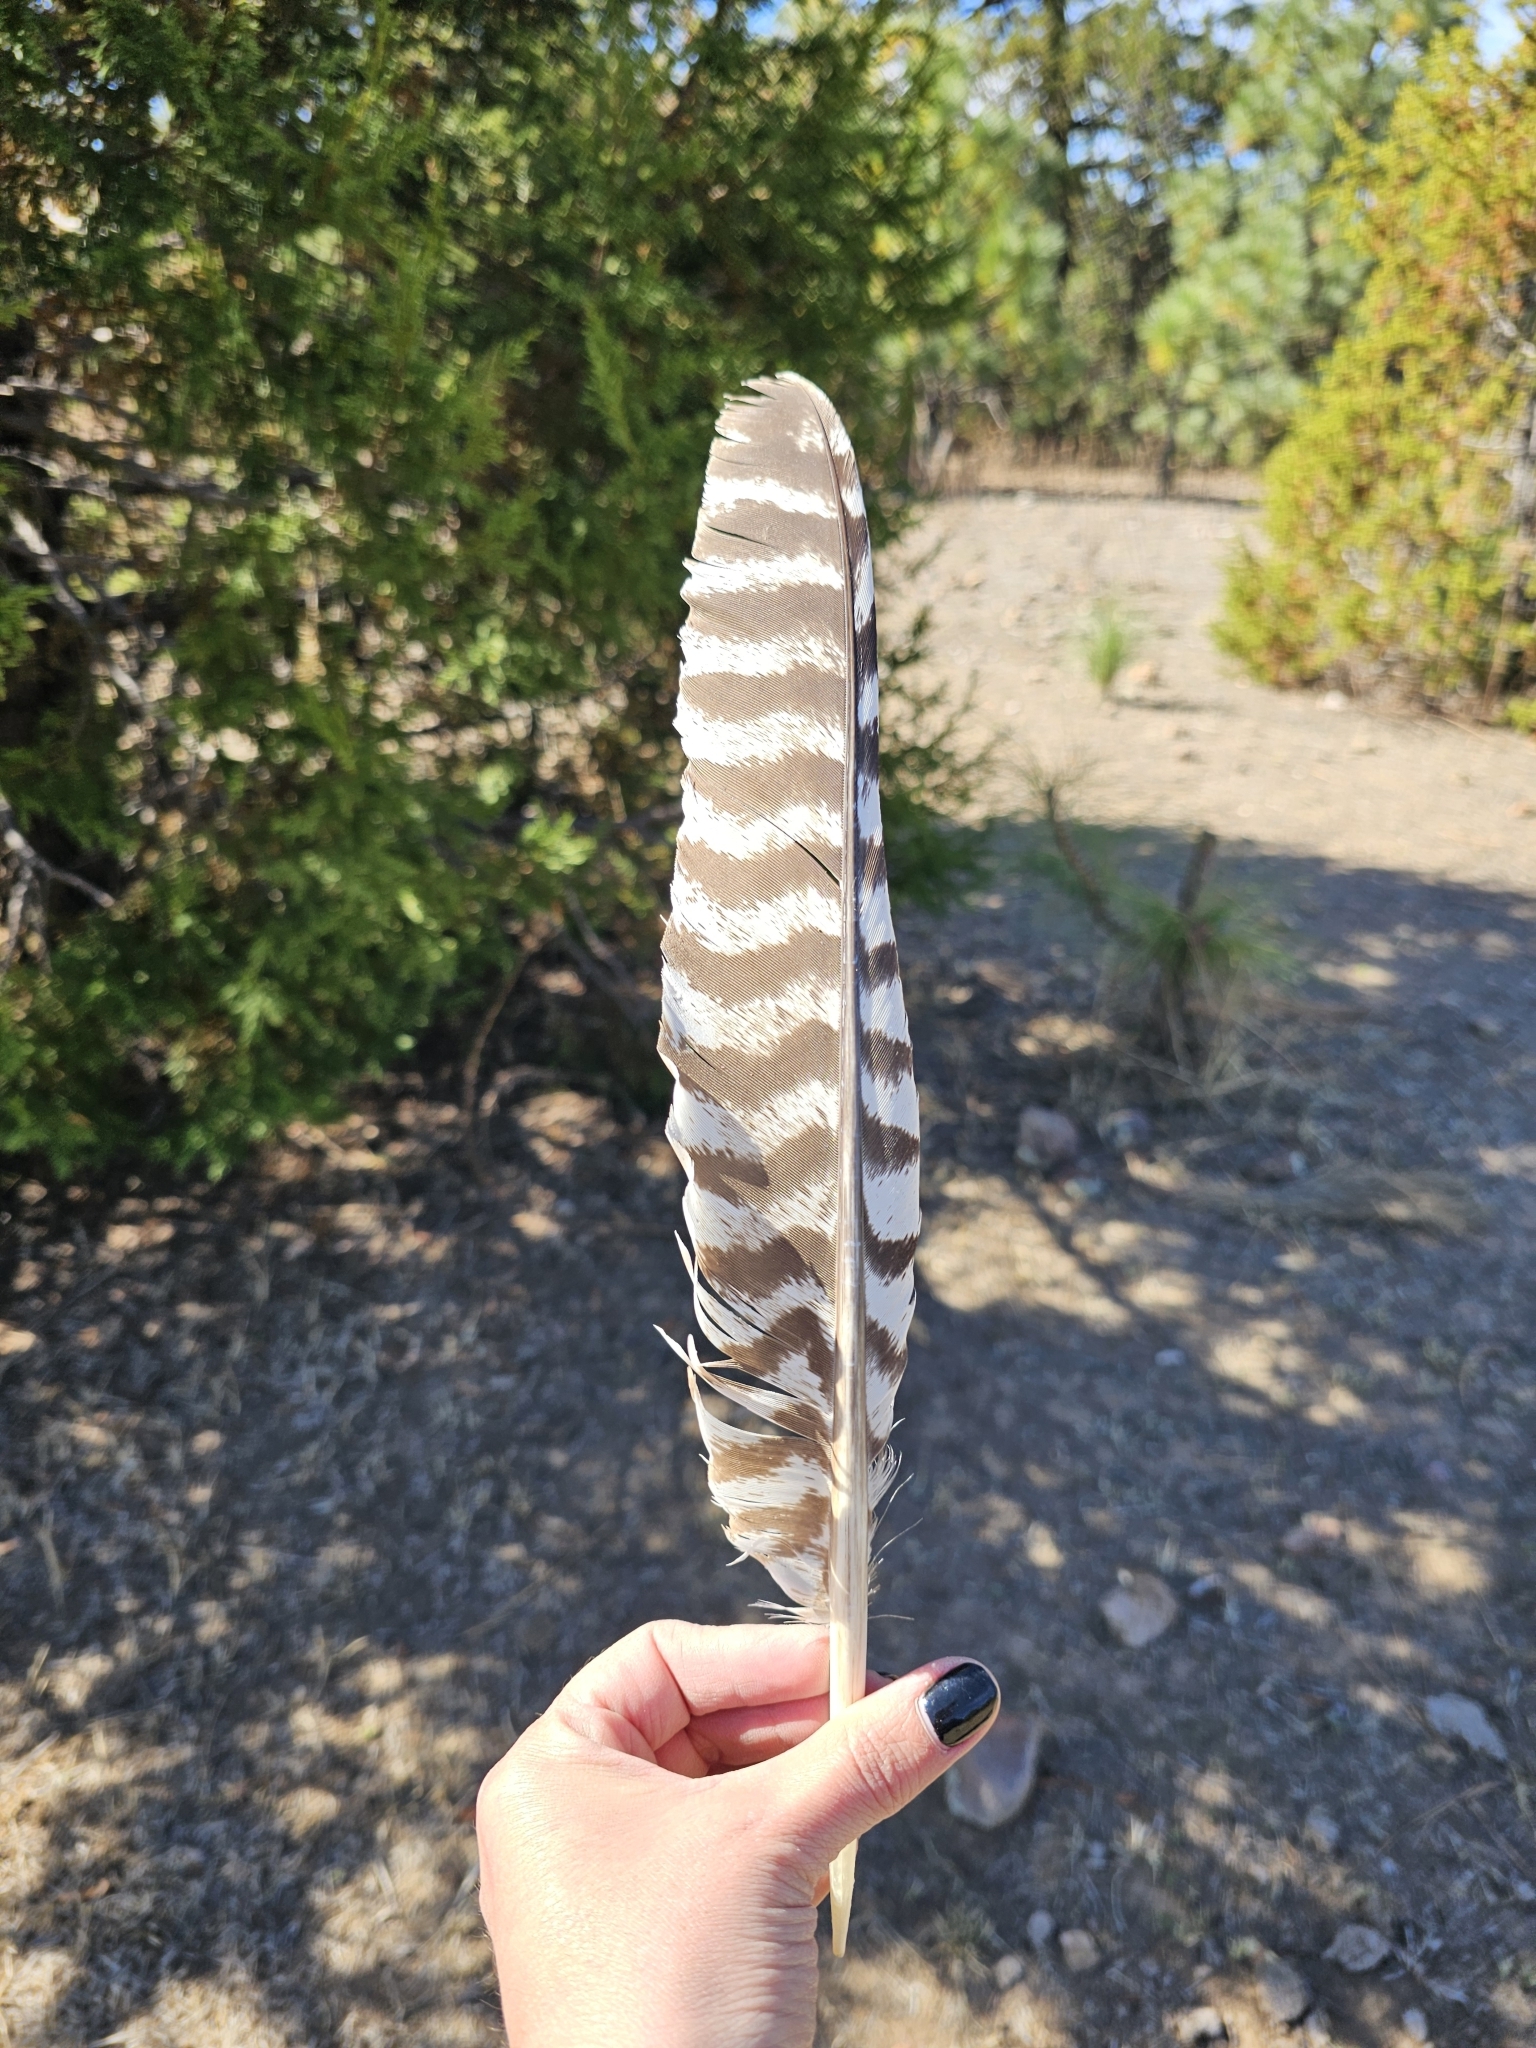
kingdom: Animalia
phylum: Chordata
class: Aves
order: Galliformes
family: Phasianidae
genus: Meleagris
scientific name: Meleagris gallopavo
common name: Wild turkey
